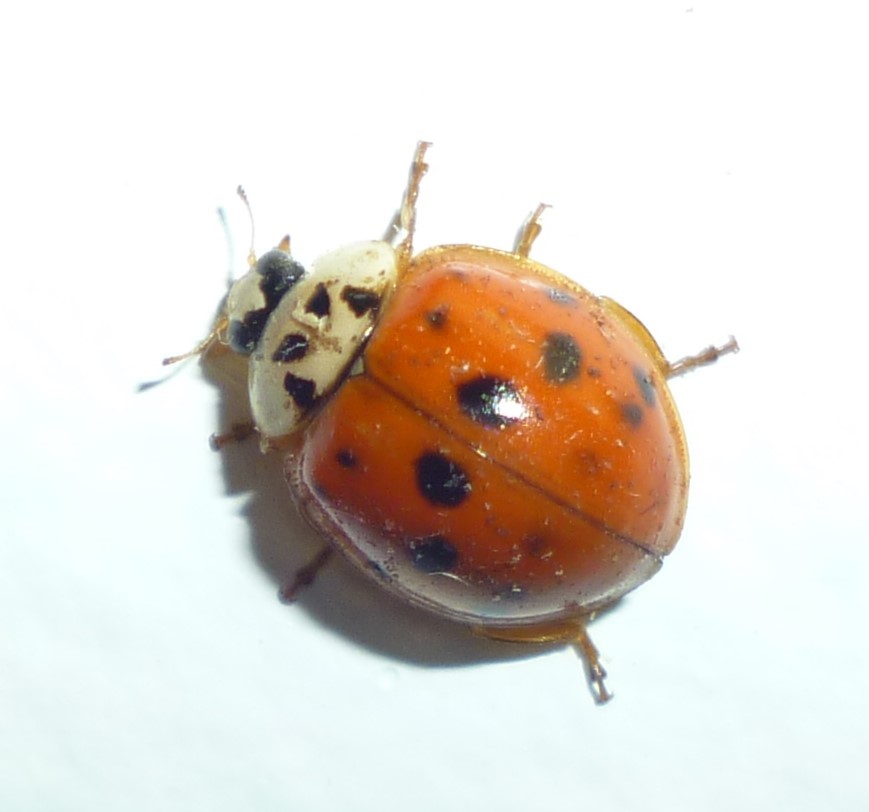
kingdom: Animalia
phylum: Arthropoda
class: Insecta
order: Coleoptera
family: Coccinellidae
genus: Harmonia
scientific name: Harmonia axyridis
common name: Harlequin ladybird
